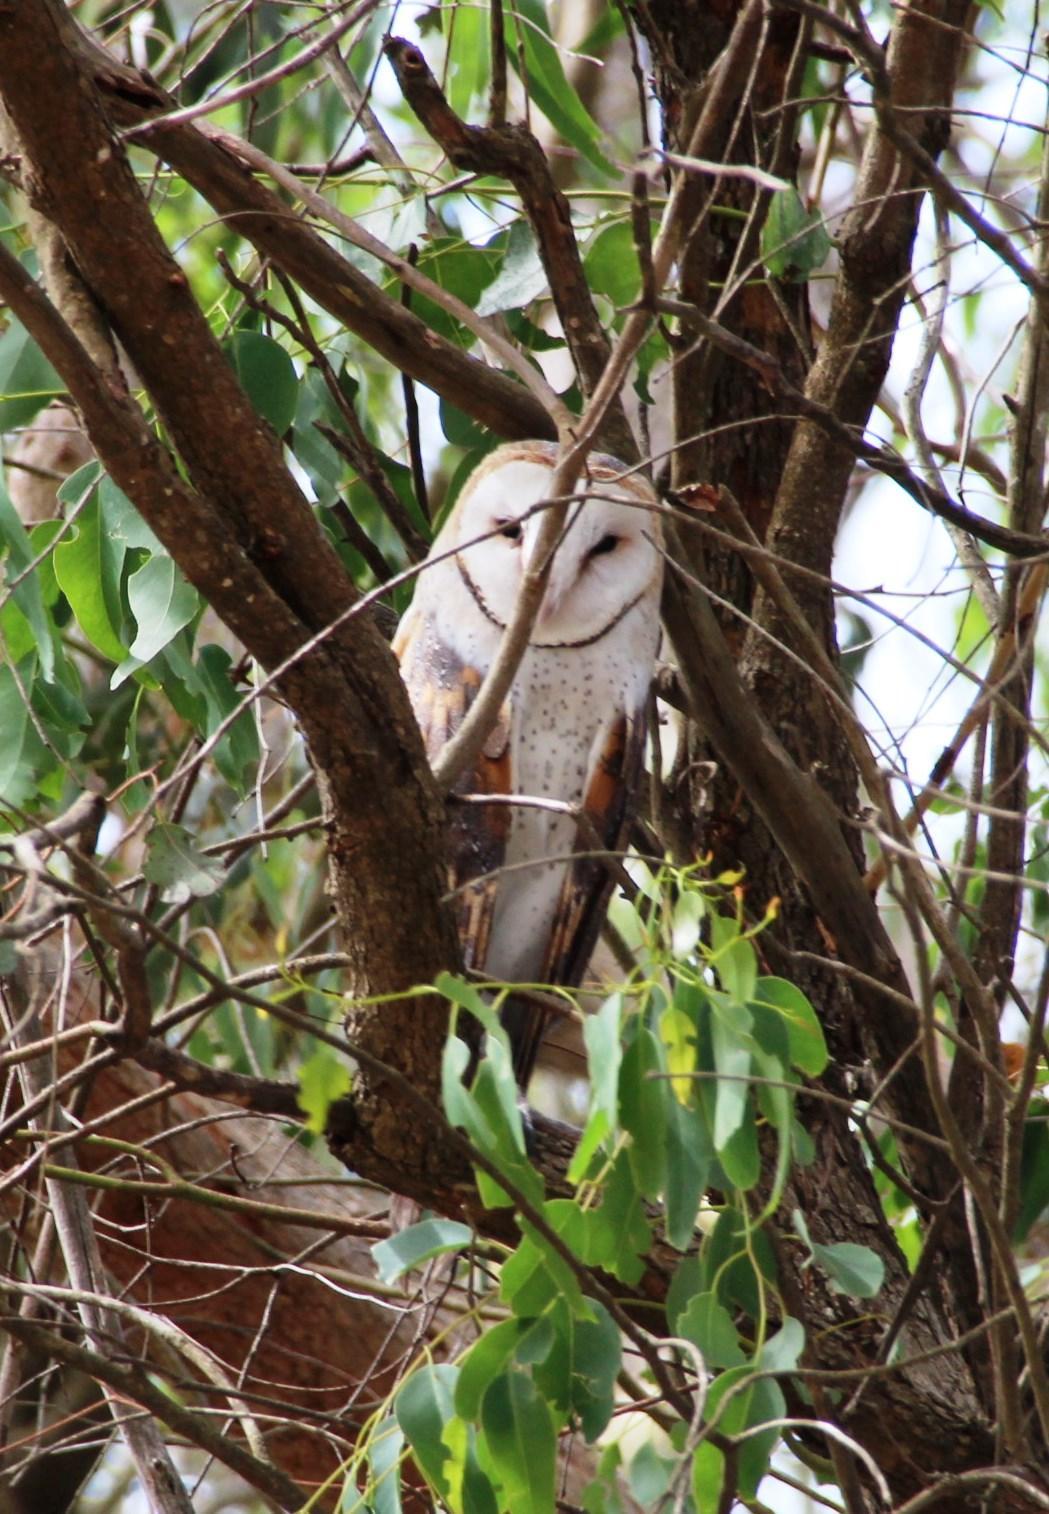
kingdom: Animalia
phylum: Chordata
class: Aves
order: Strigiformes
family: Tytonidae
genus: Tyto
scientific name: Tyto alba
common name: Barn owl
